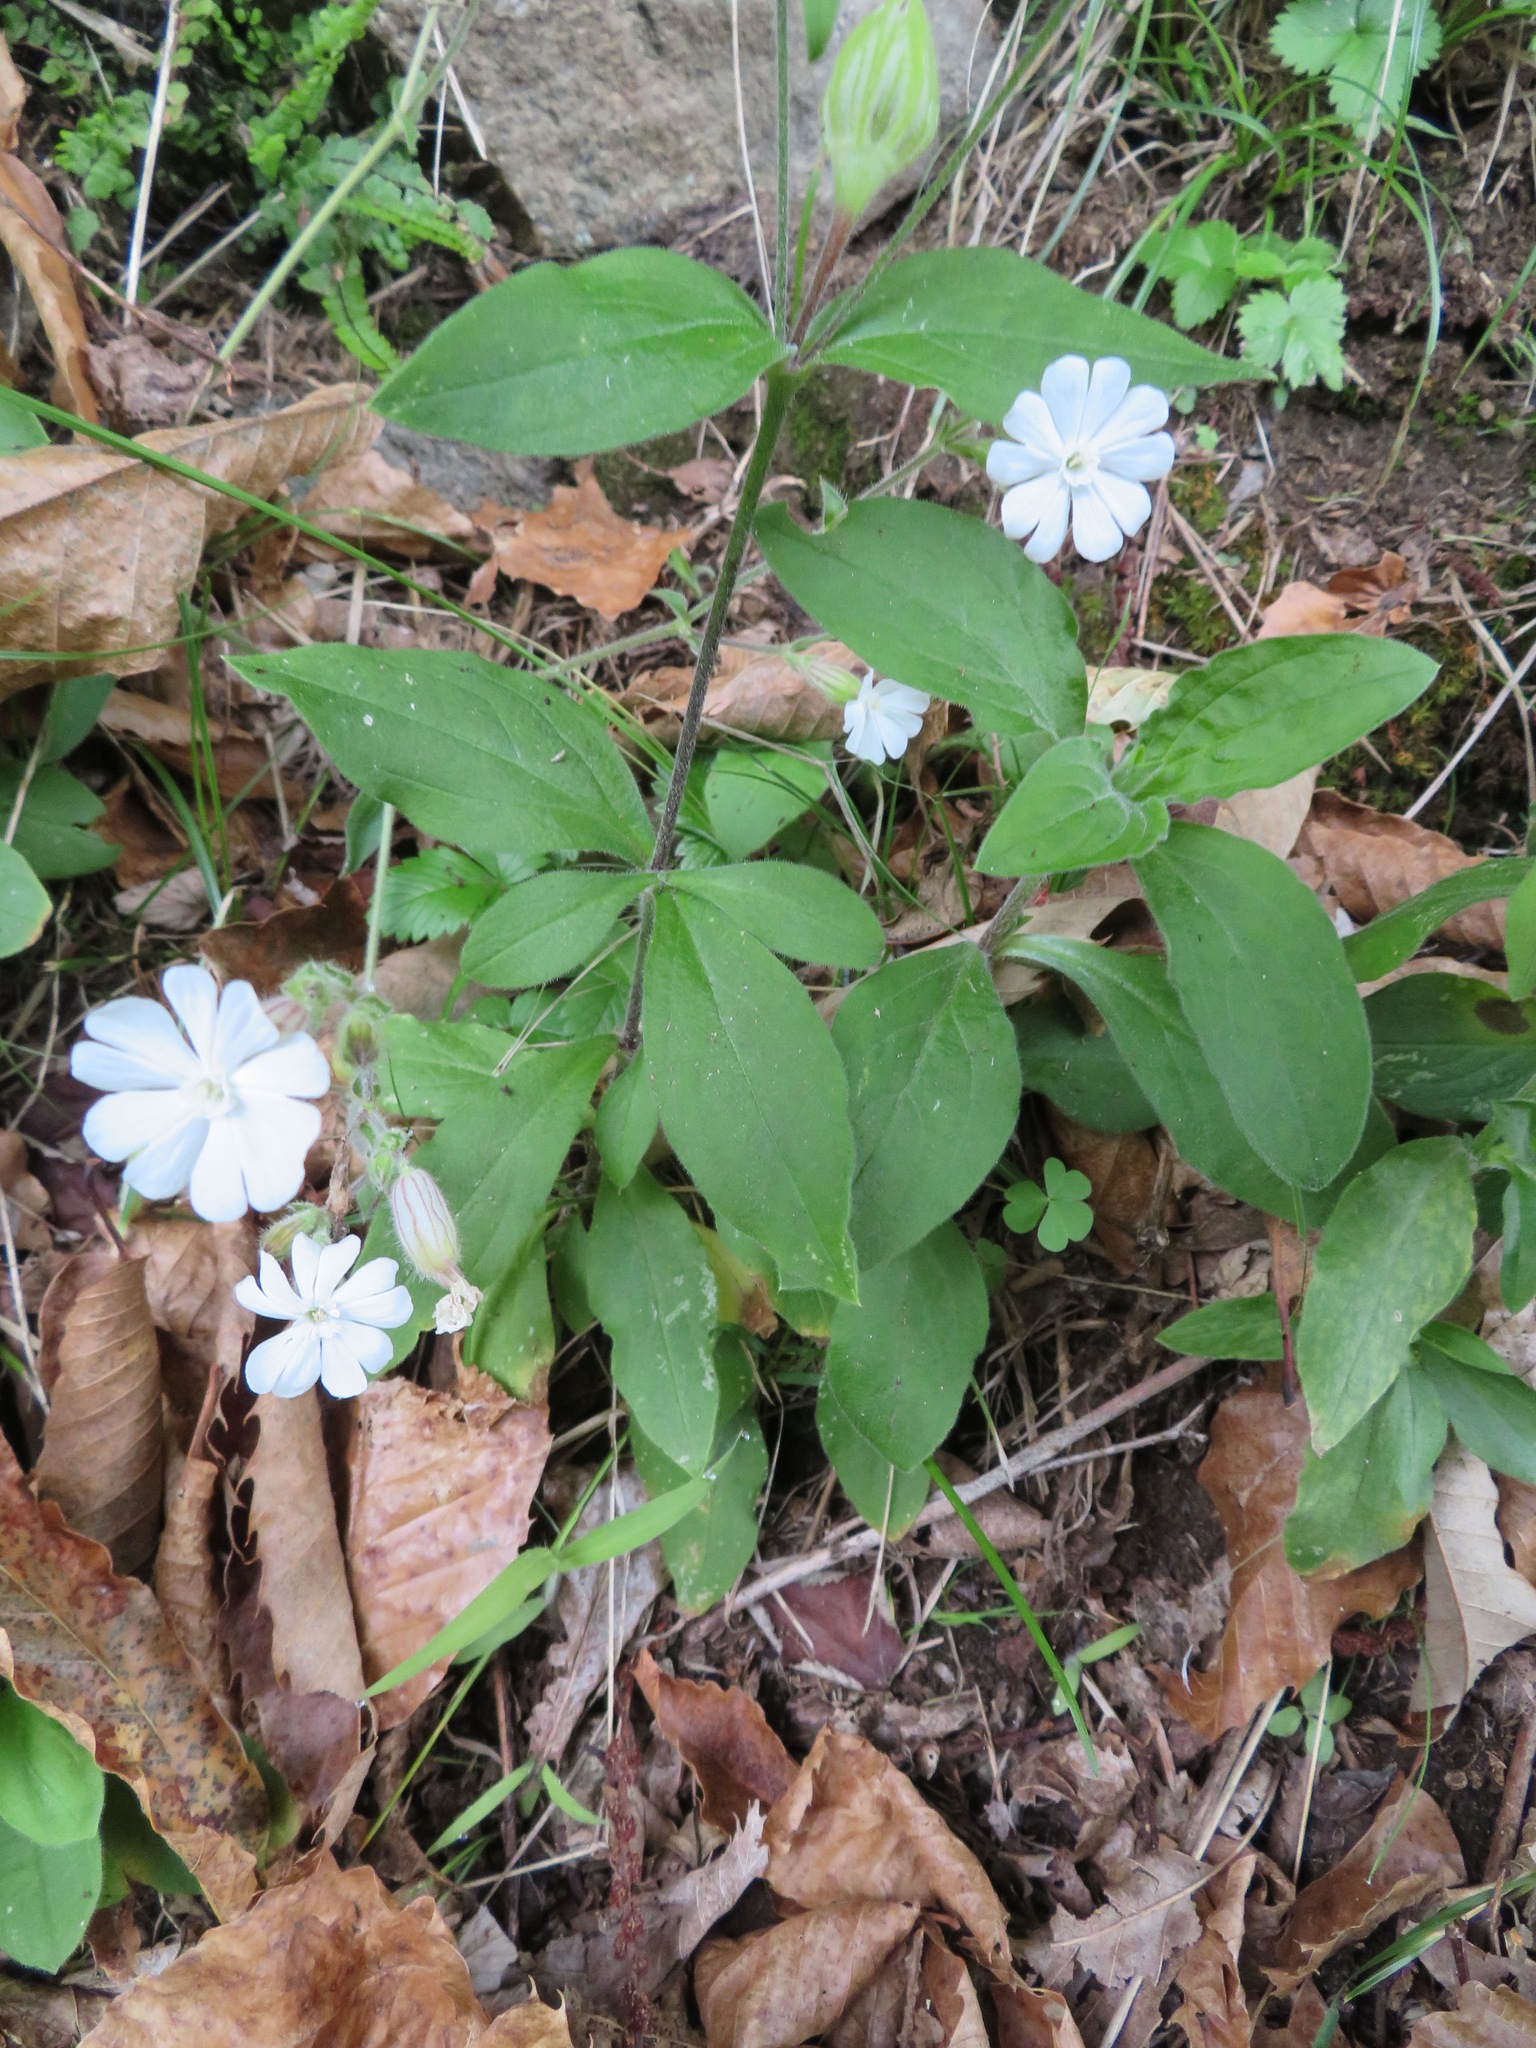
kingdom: Plantae
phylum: Tracheophyta
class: Magnoliopsida
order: Caryophyllales
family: Caryophyllaceae
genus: Silene
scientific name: Silene latifolia
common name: White campion
